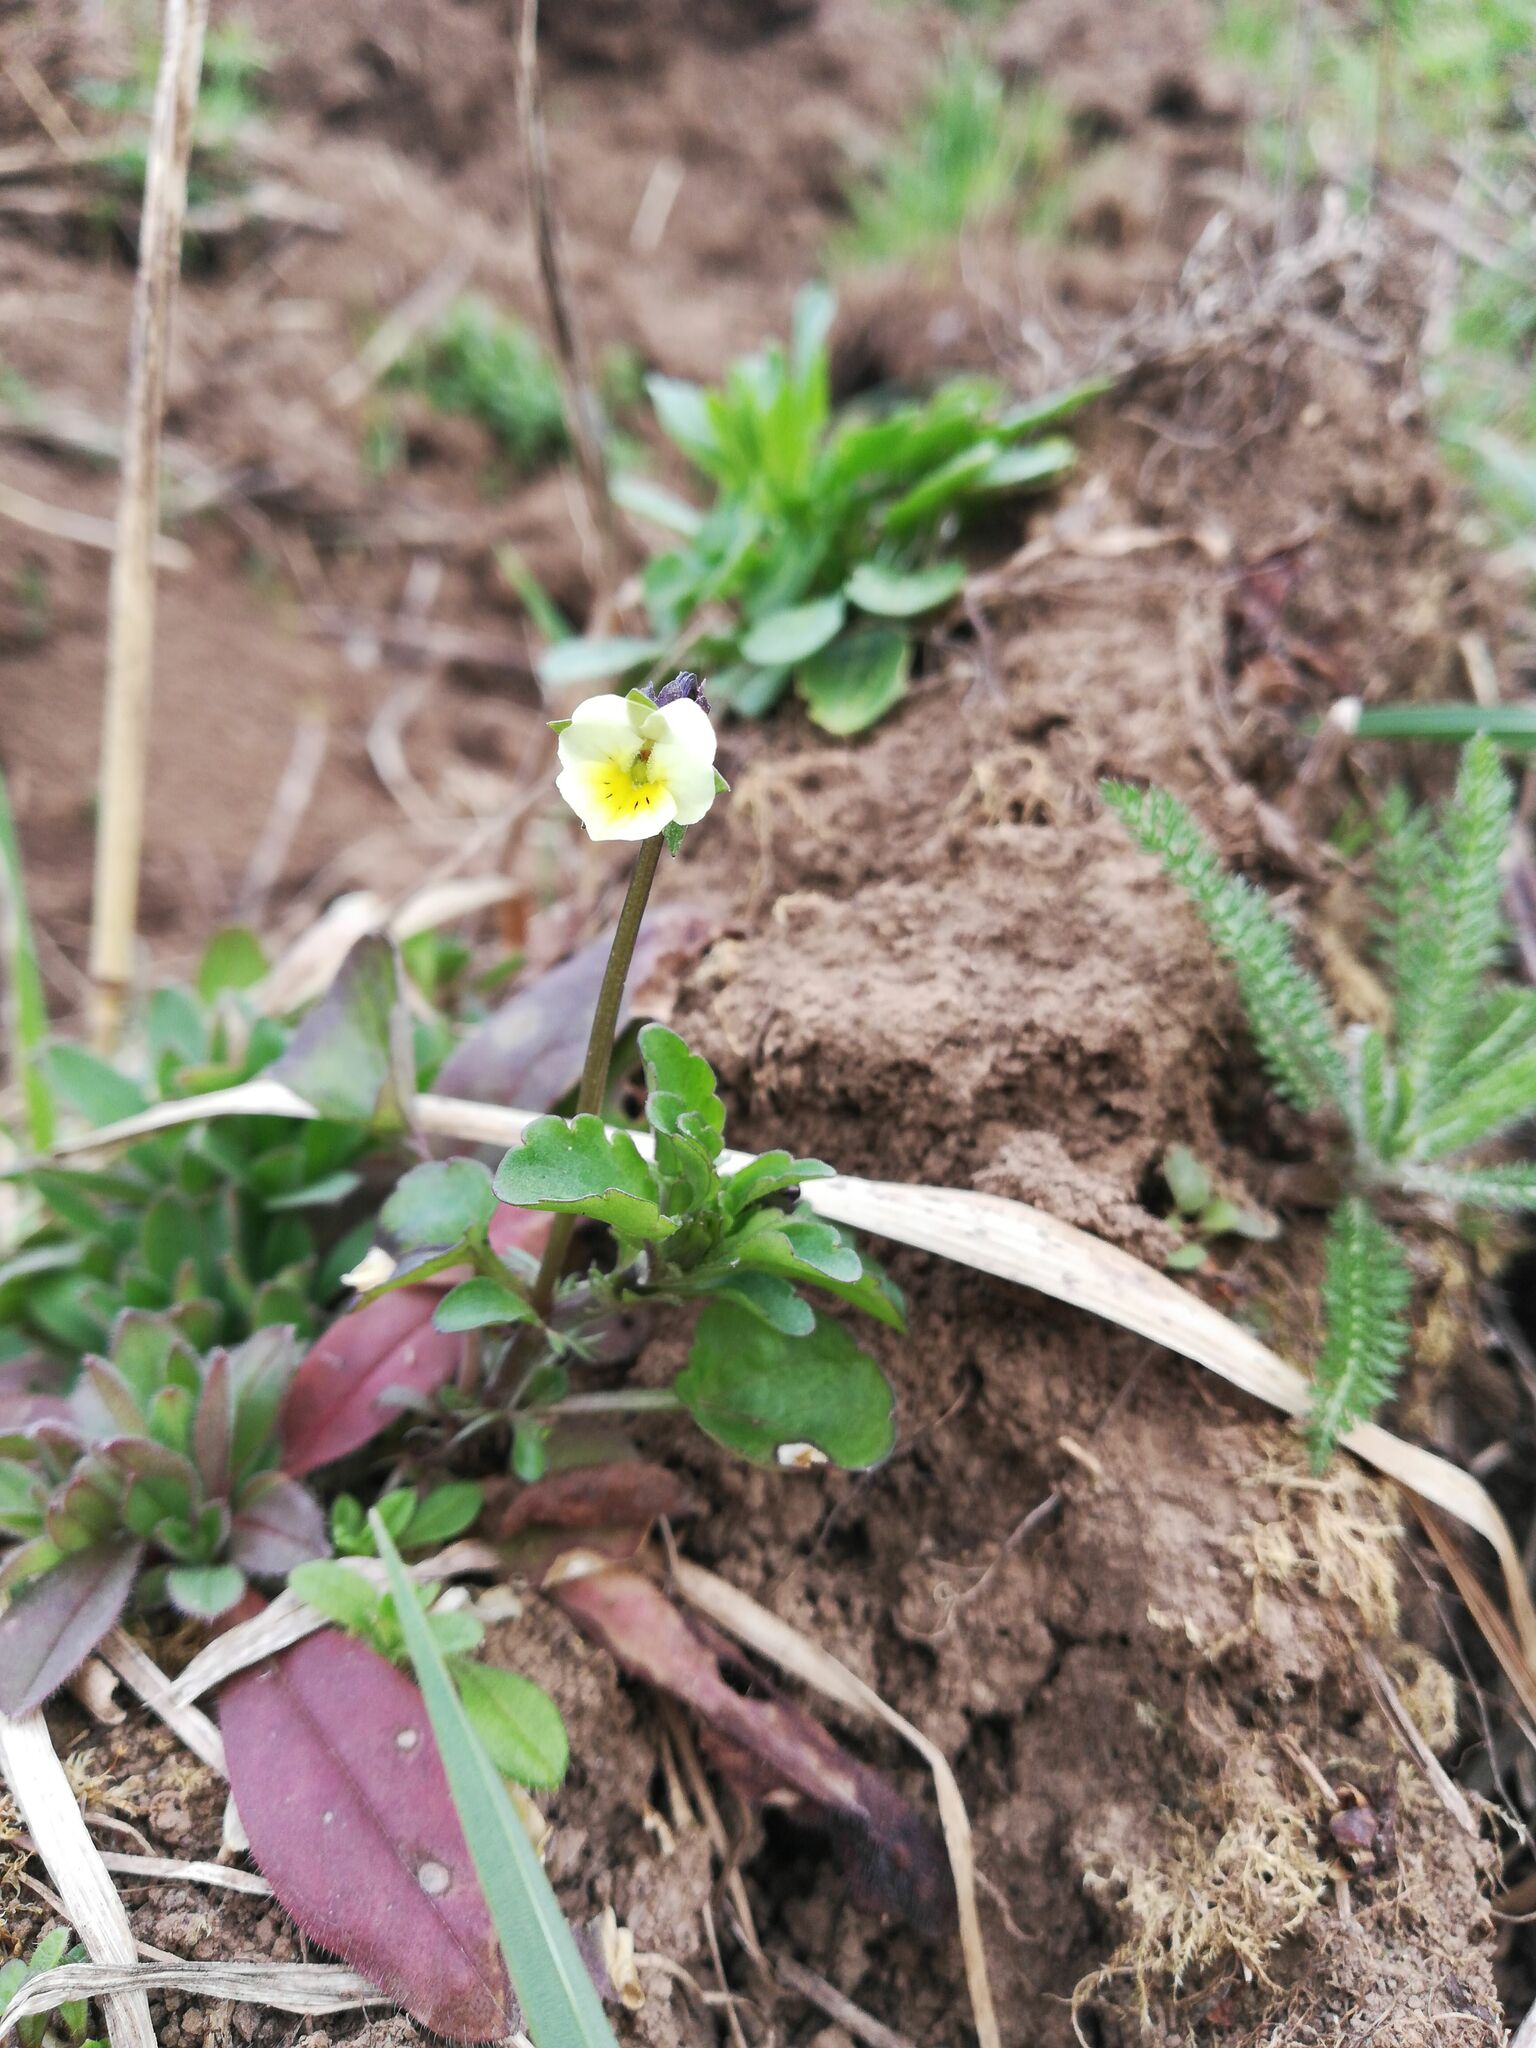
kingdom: Plantae
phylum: Tracheophyta
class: Magnoliopsida
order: Malpighiales
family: Violaceae
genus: Viola
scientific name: Viola arvensis
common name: Field pansy
